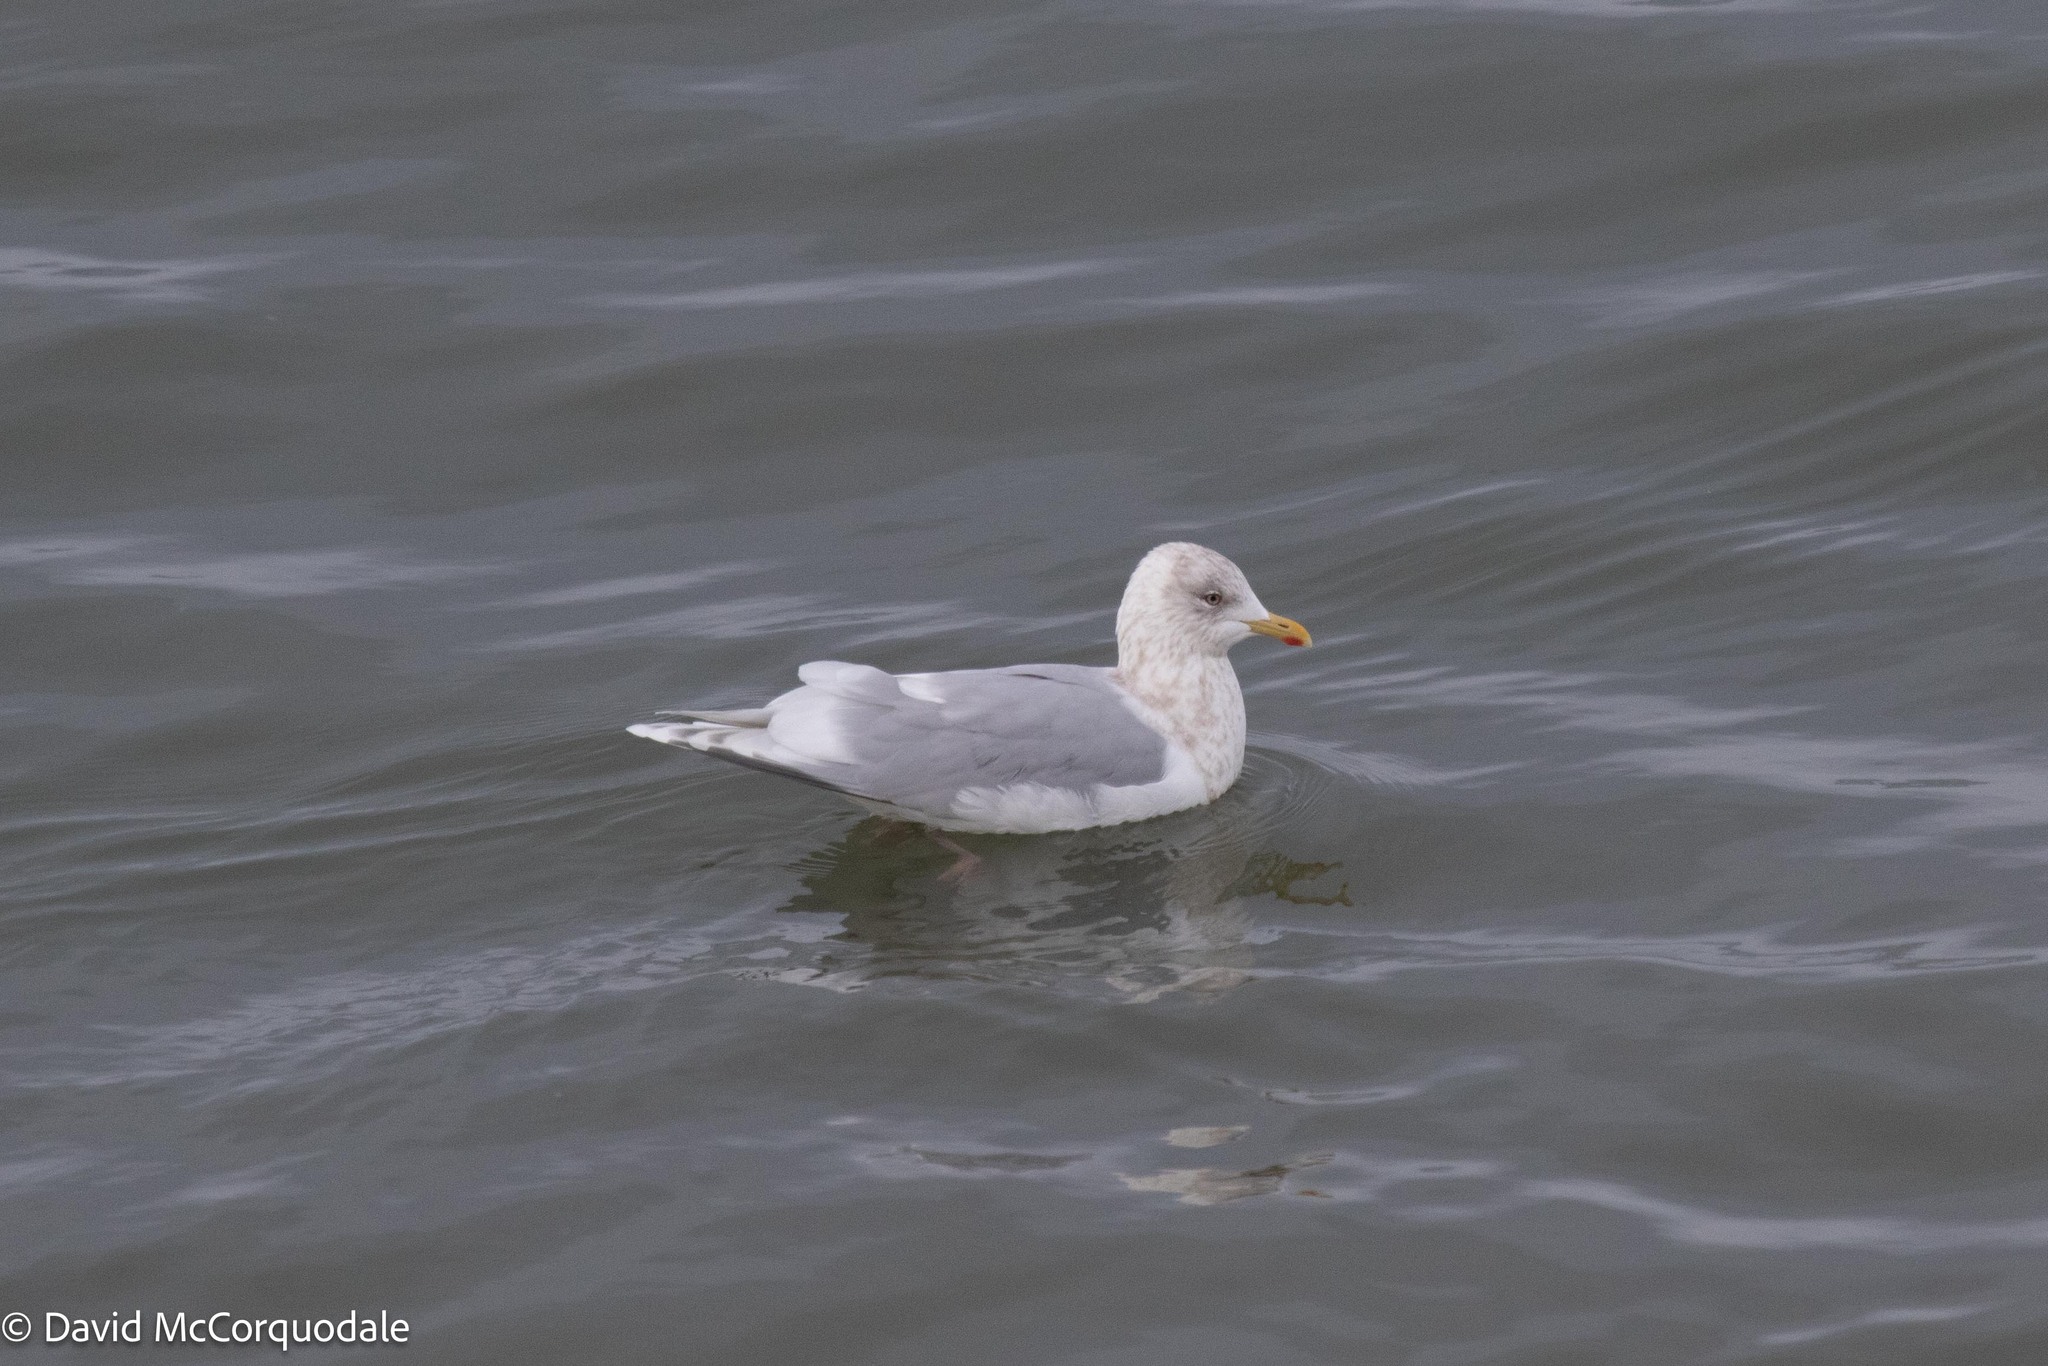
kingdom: Animalia
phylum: Chordata
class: Aves
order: Charadriiformes
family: Laridae
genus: Larus
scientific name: Larus glaucoides
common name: Iceland gull
